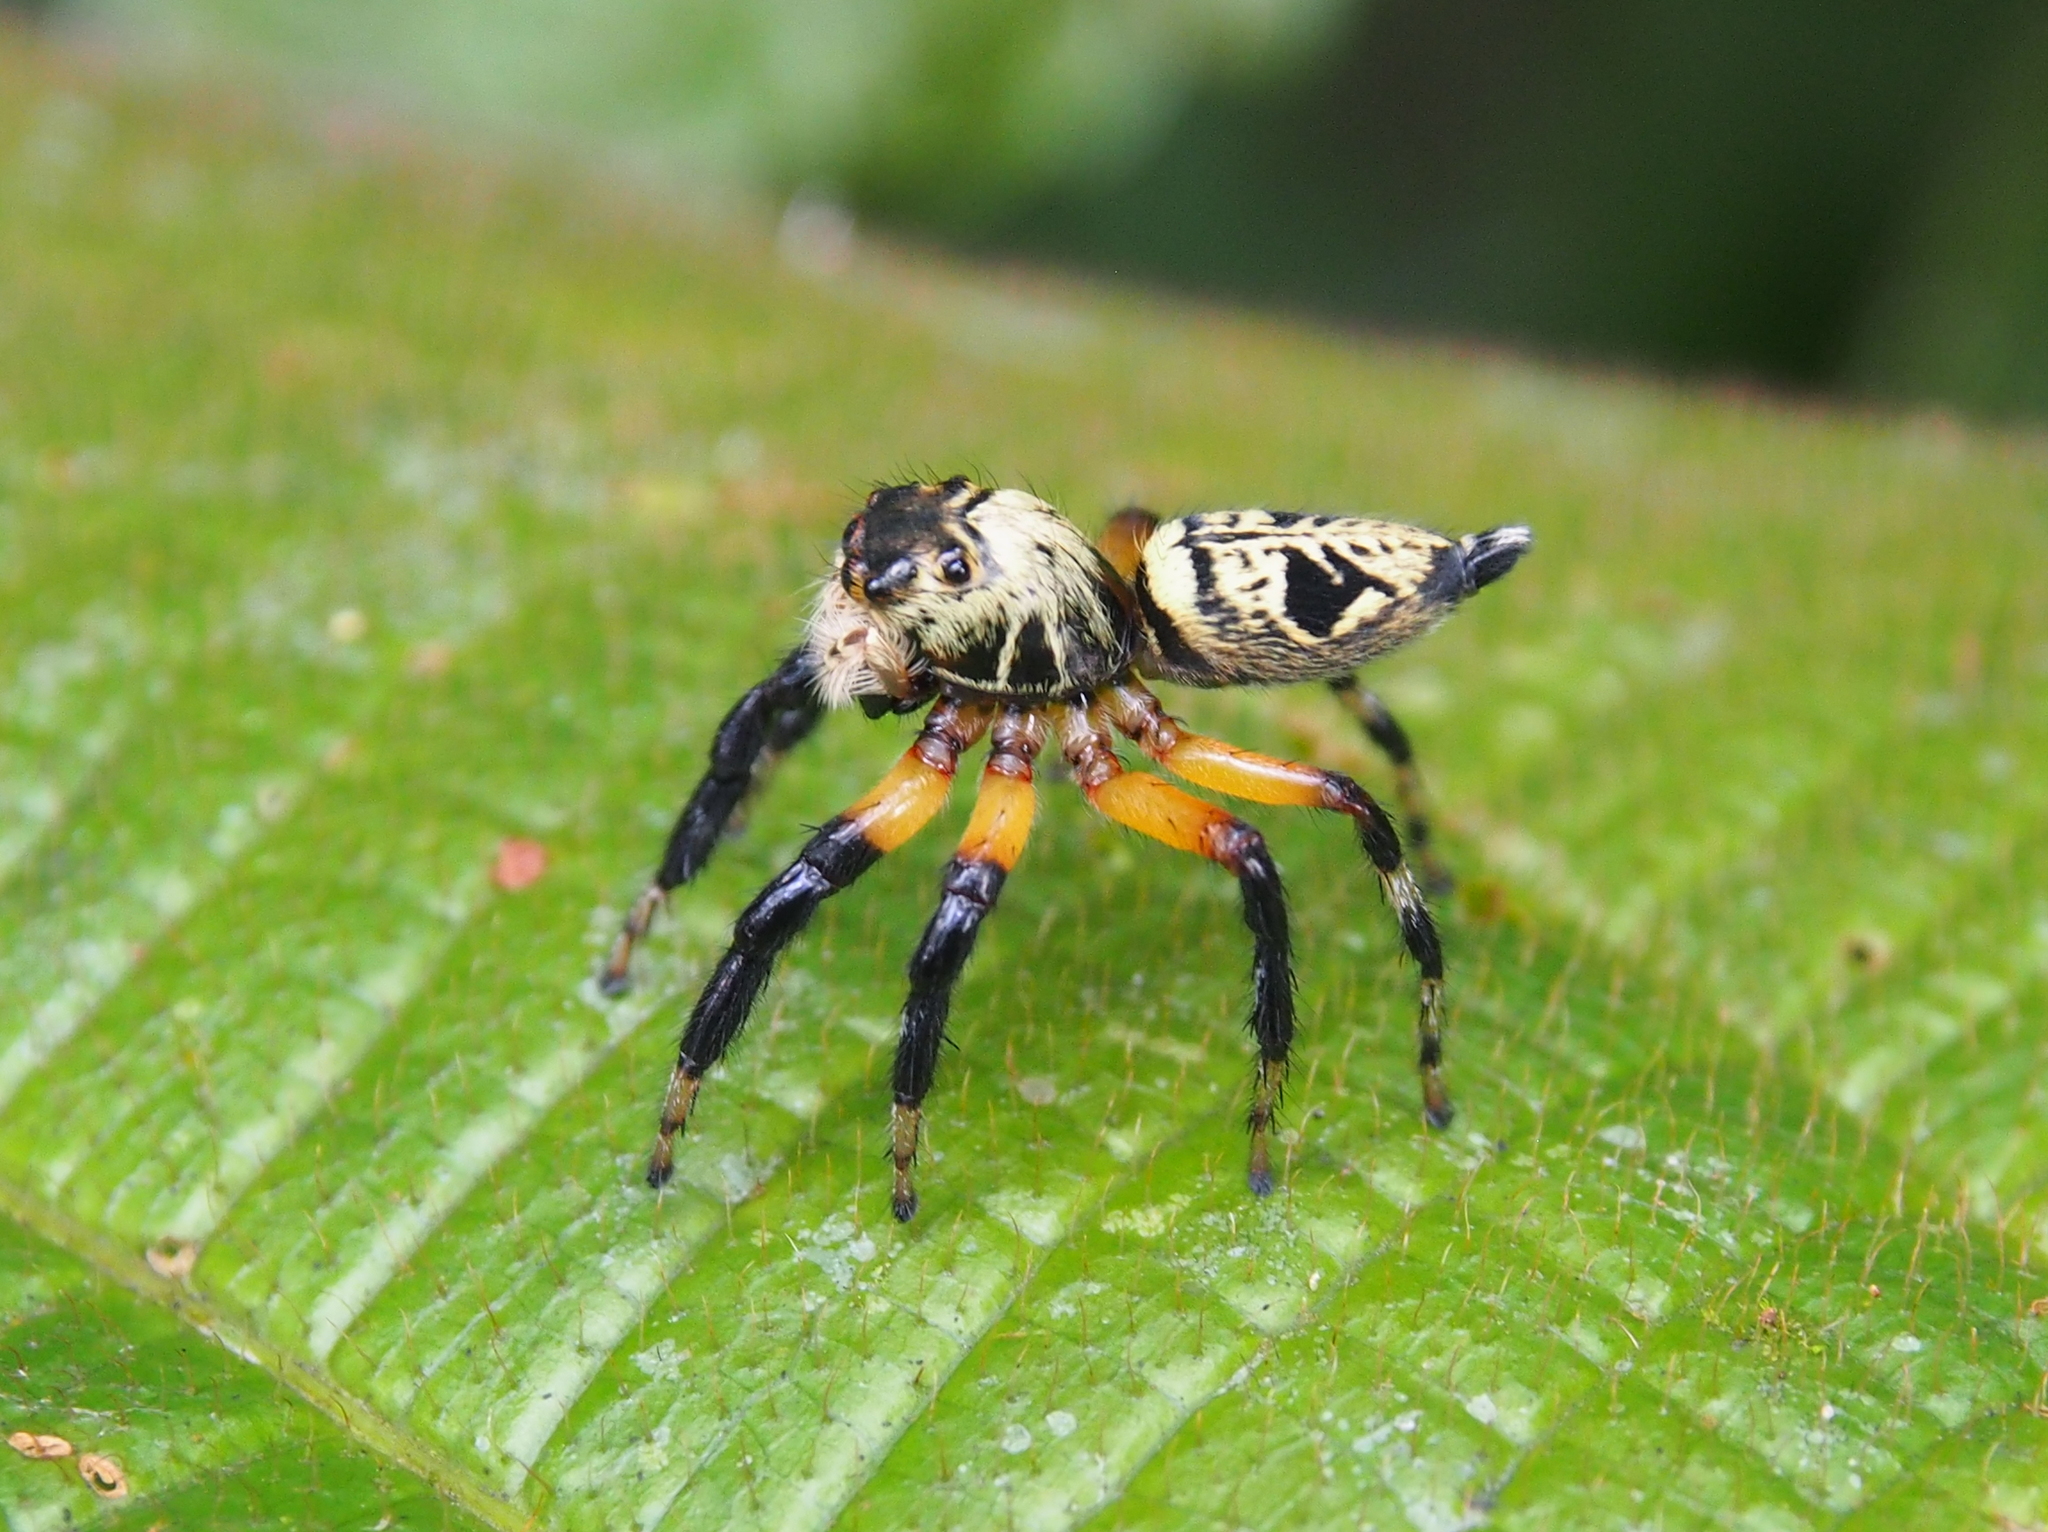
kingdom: Animalia
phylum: Arthropoda
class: Arachnida
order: Araneae
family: Salticidae
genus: Phiale
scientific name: Phiale formosa
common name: Jumping spiders
